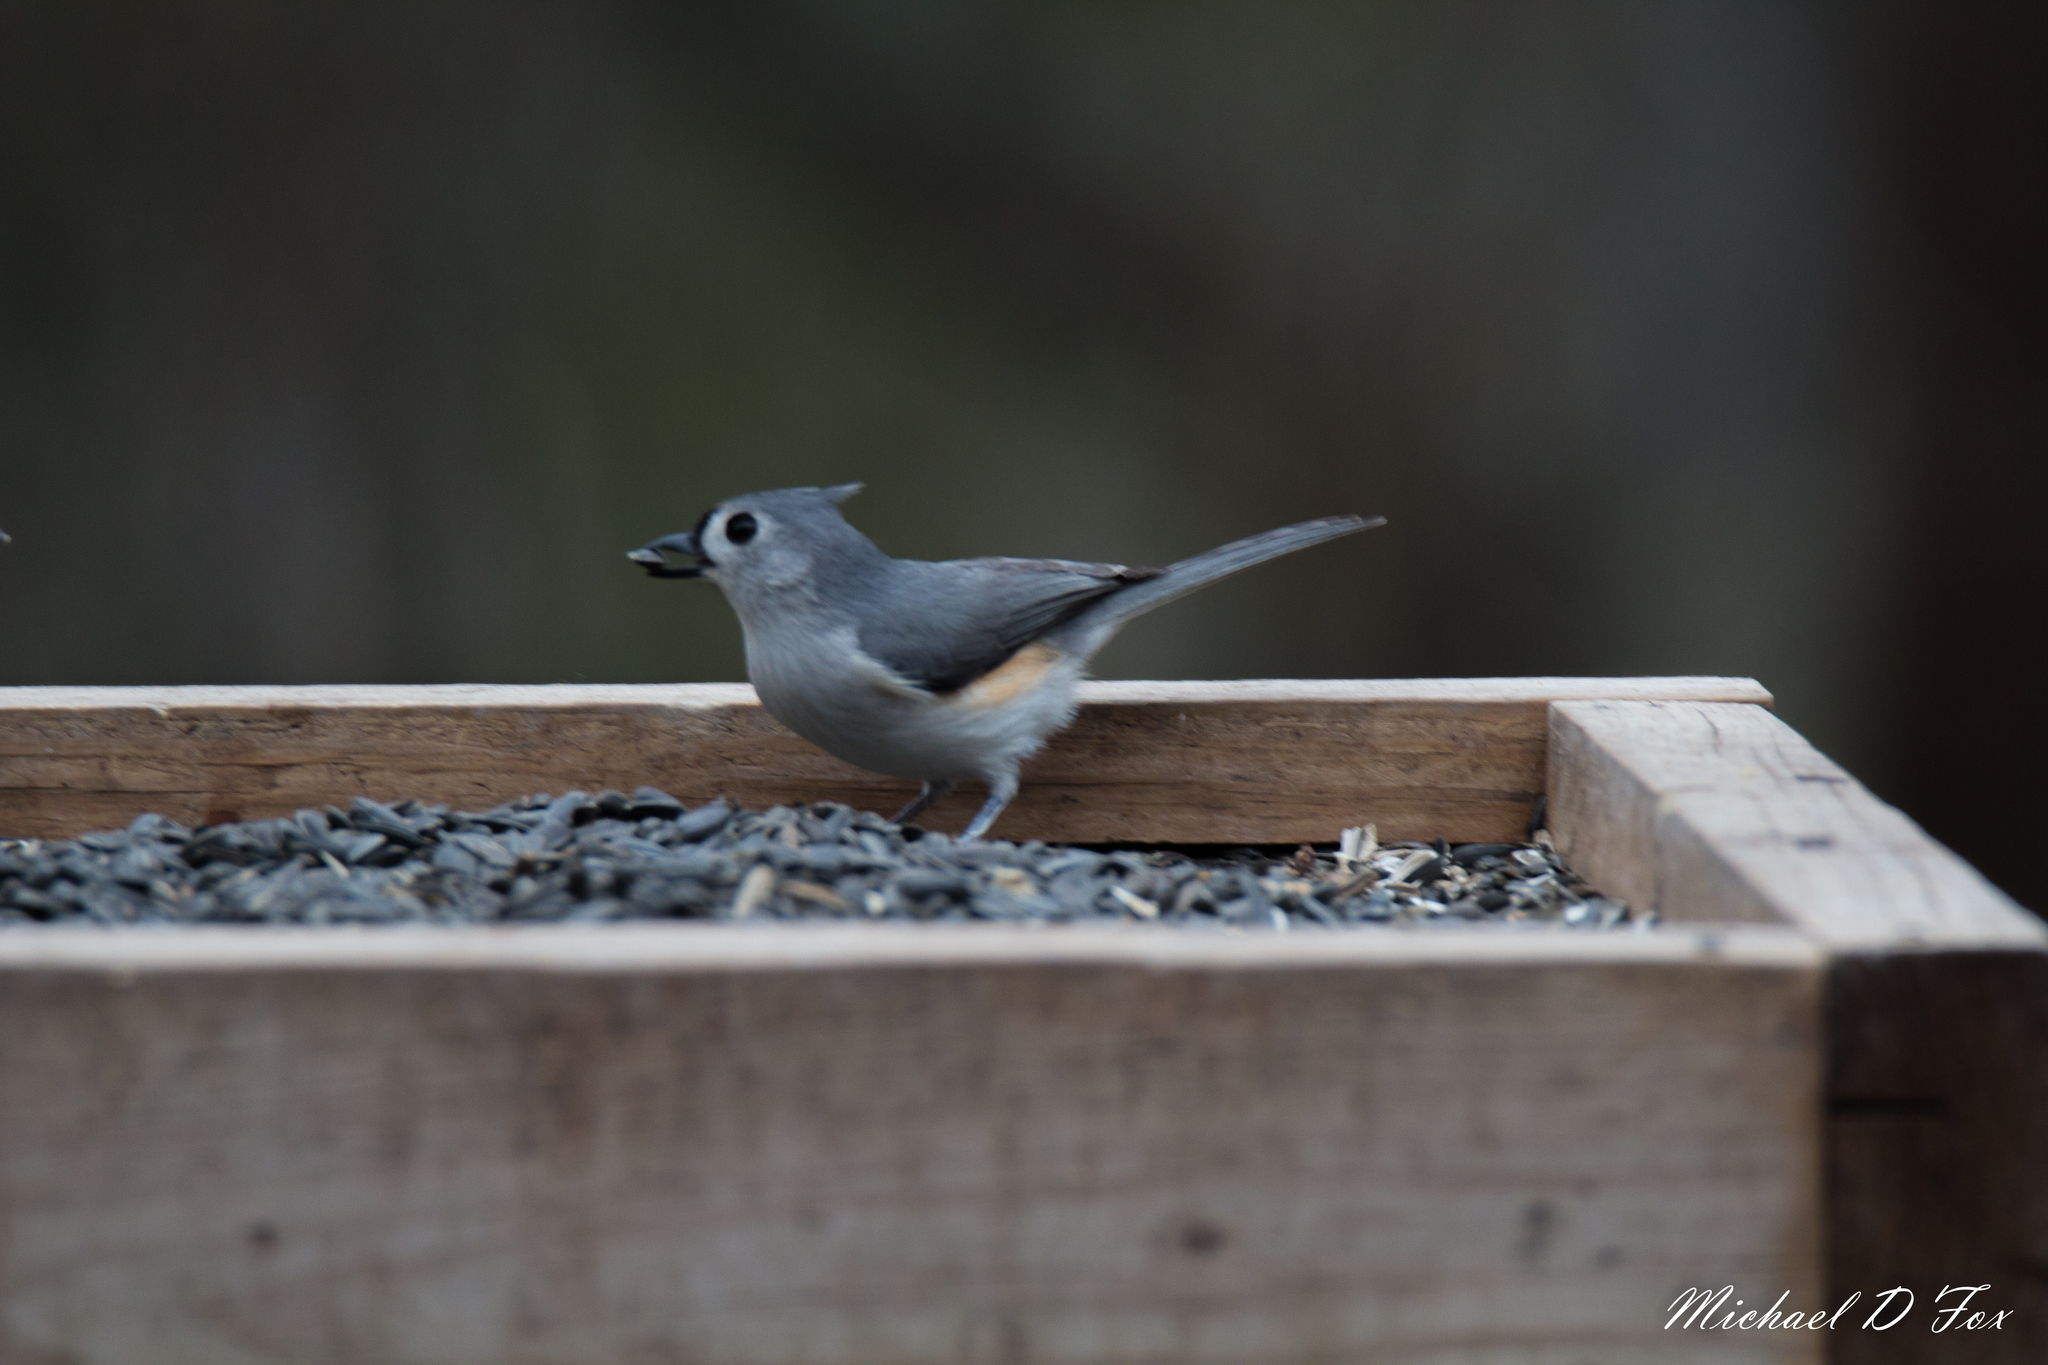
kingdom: Animalia
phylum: Chordata
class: Aves
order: Passeriformes
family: Paridae
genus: Baeolophus
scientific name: Baeolophus bicolor
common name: Tufted titmouse
